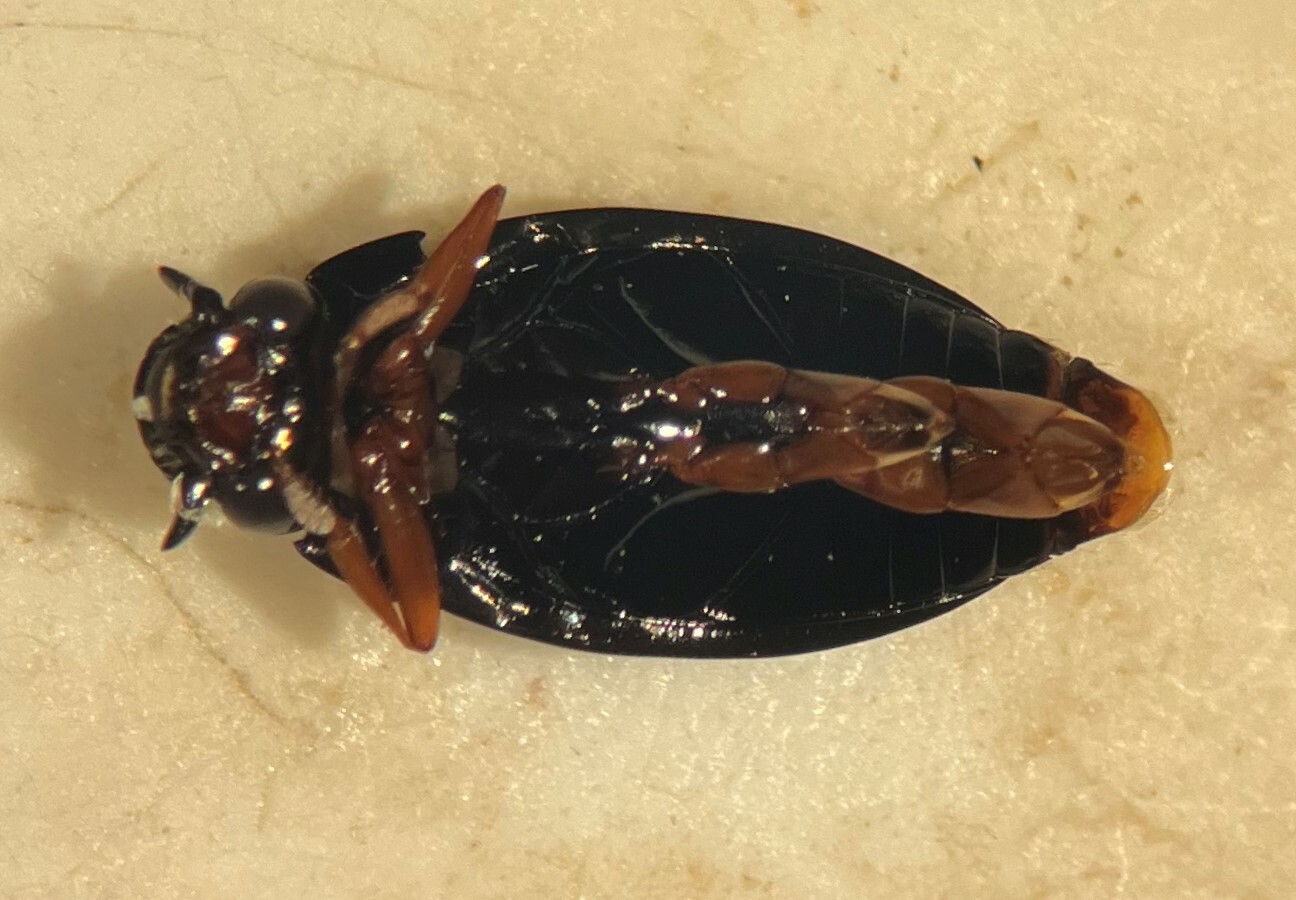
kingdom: Animalia
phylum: Arthropoda
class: Insecta
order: Coleoptera
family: Gyrinidae
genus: Gyrinus
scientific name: Gyrinus sayi
